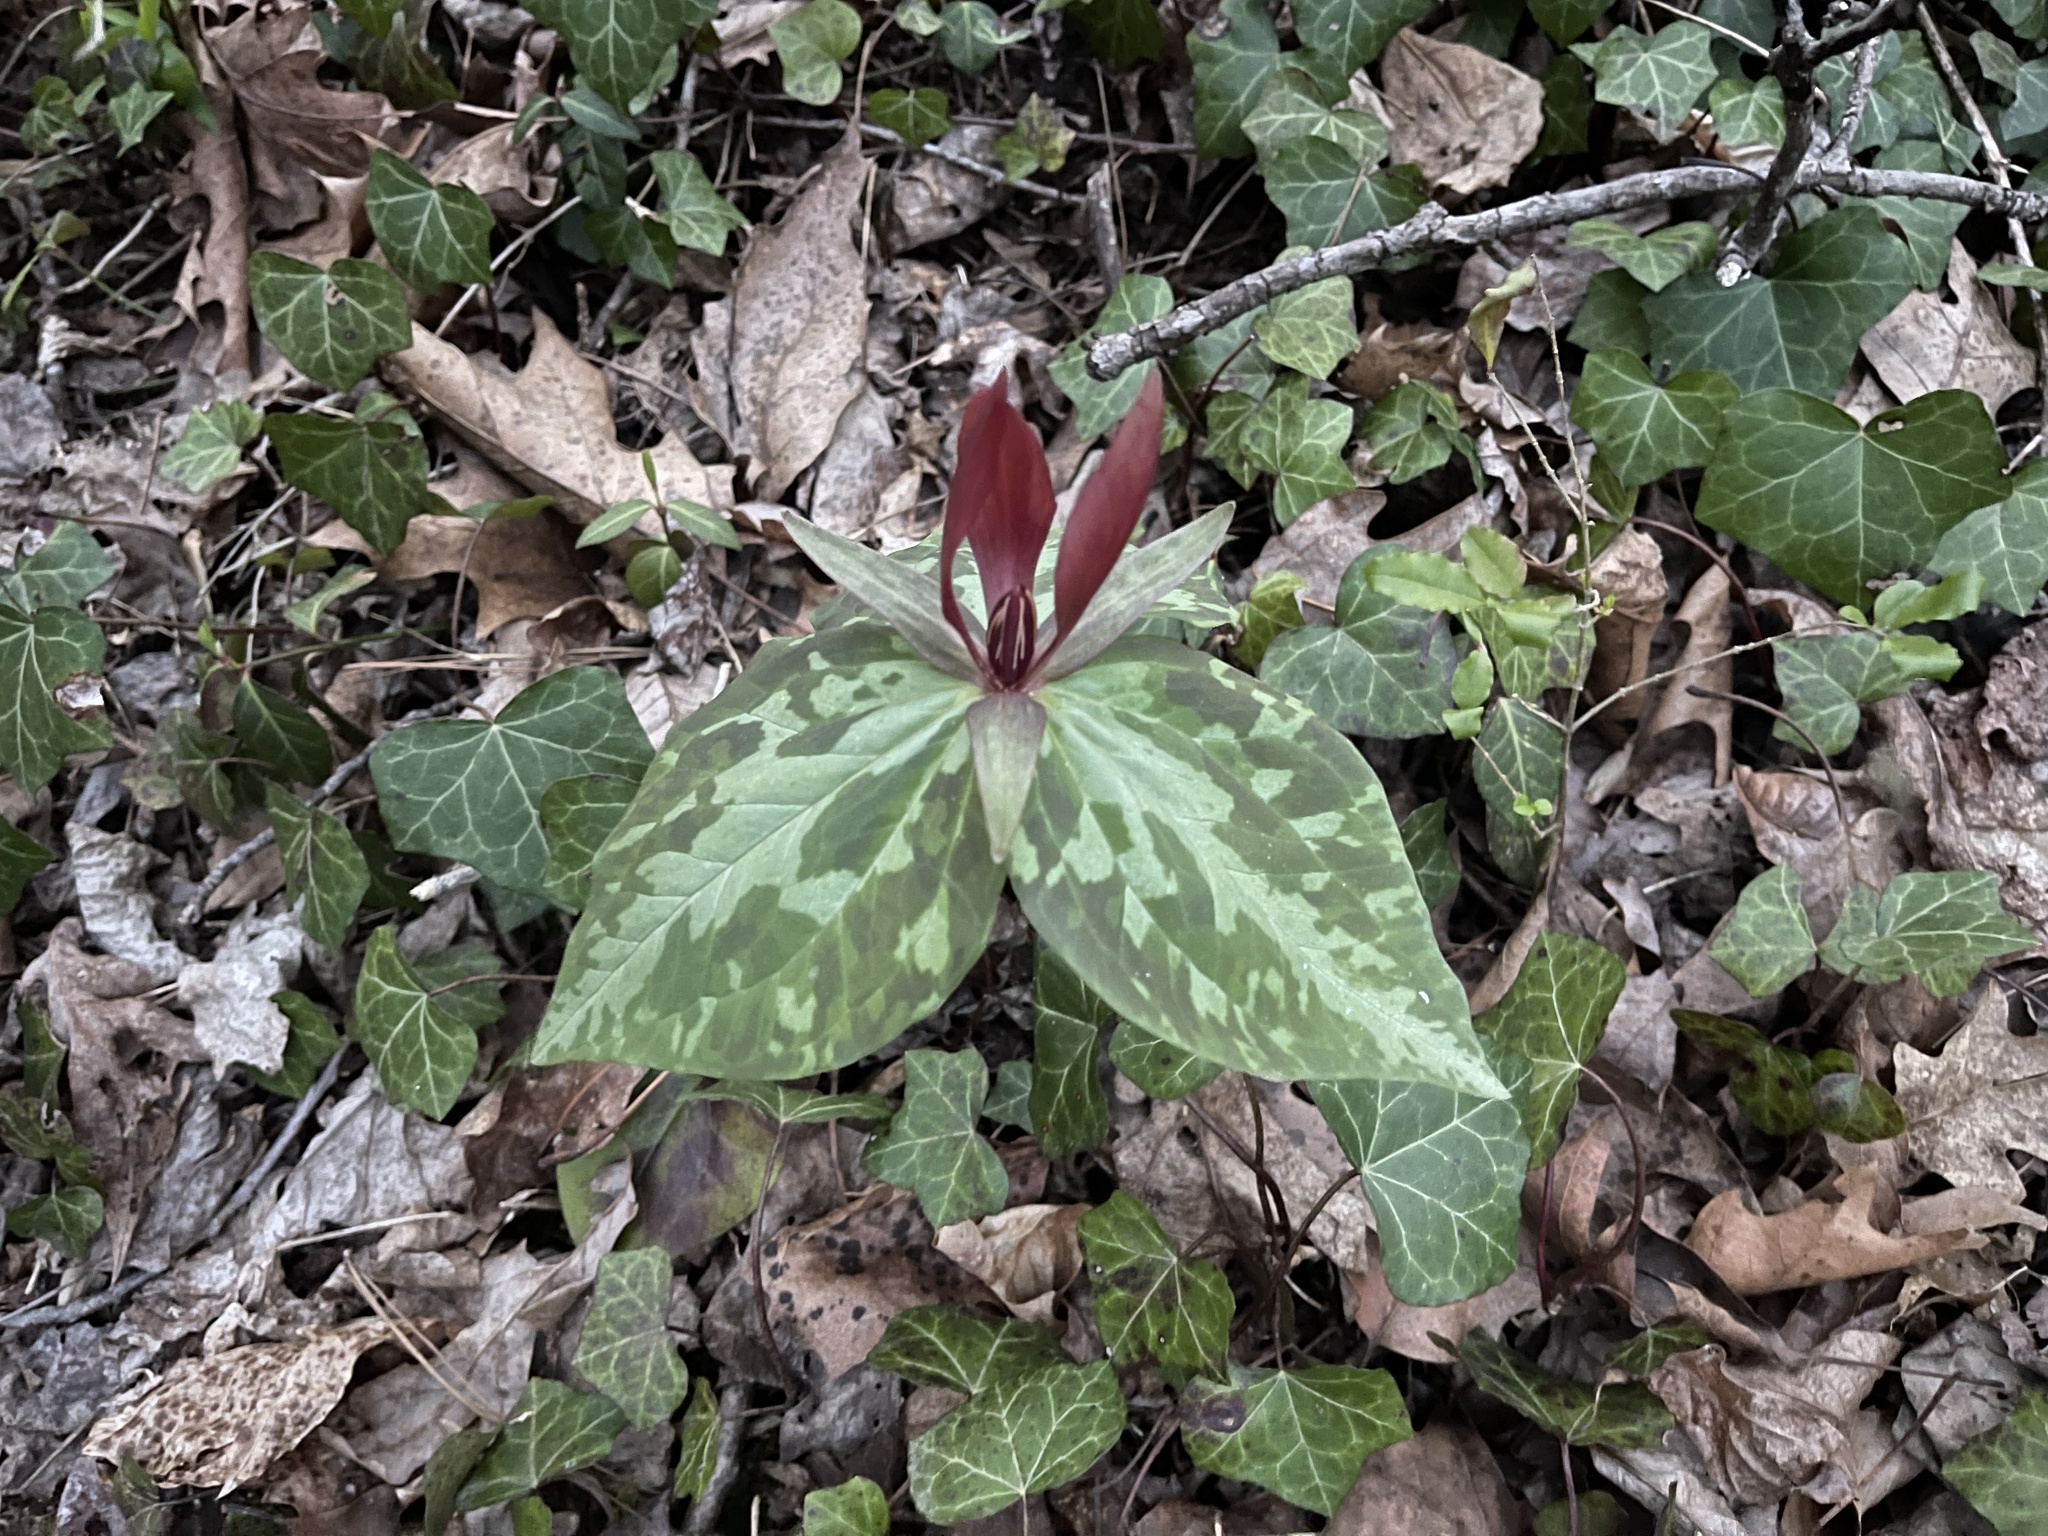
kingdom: Plantae
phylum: Tracheophyta
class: Liliopsida
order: Liliales
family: Melanthiaceae
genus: Trillium
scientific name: Trillium cuneatum
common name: Cuneate trillium
